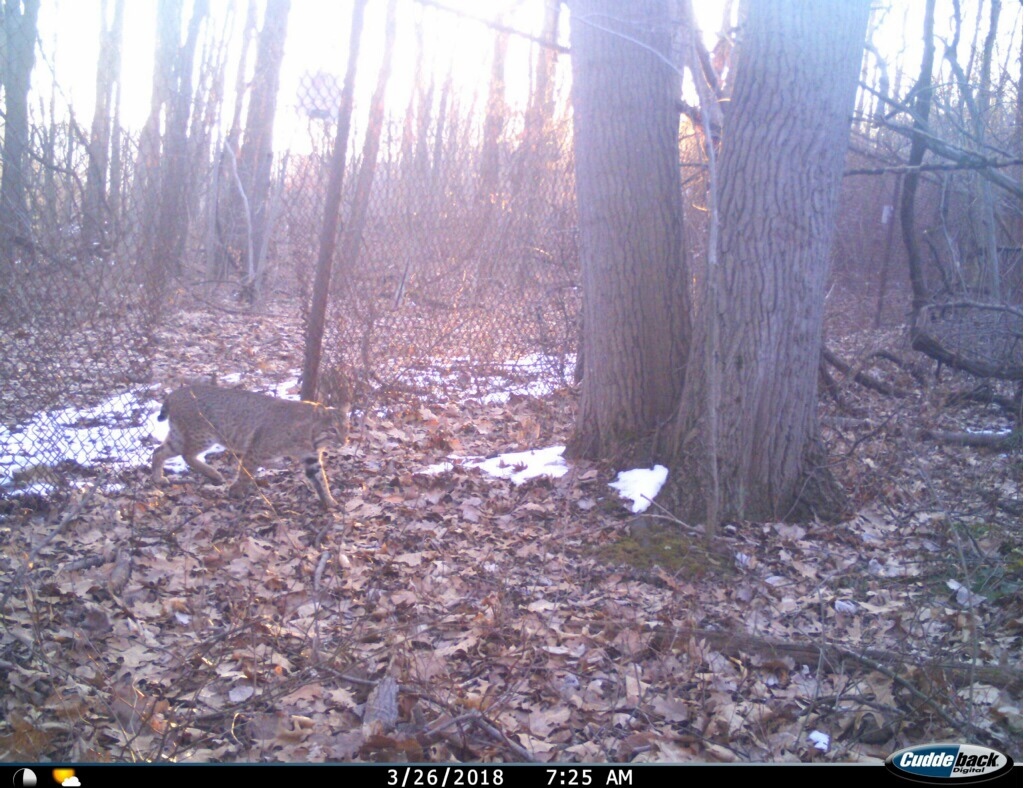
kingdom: Animalia
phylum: Chordata
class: Mammalia
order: Carnivora
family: Felidae
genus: Lynx
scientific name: Lynx rufus
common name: Bobcat
